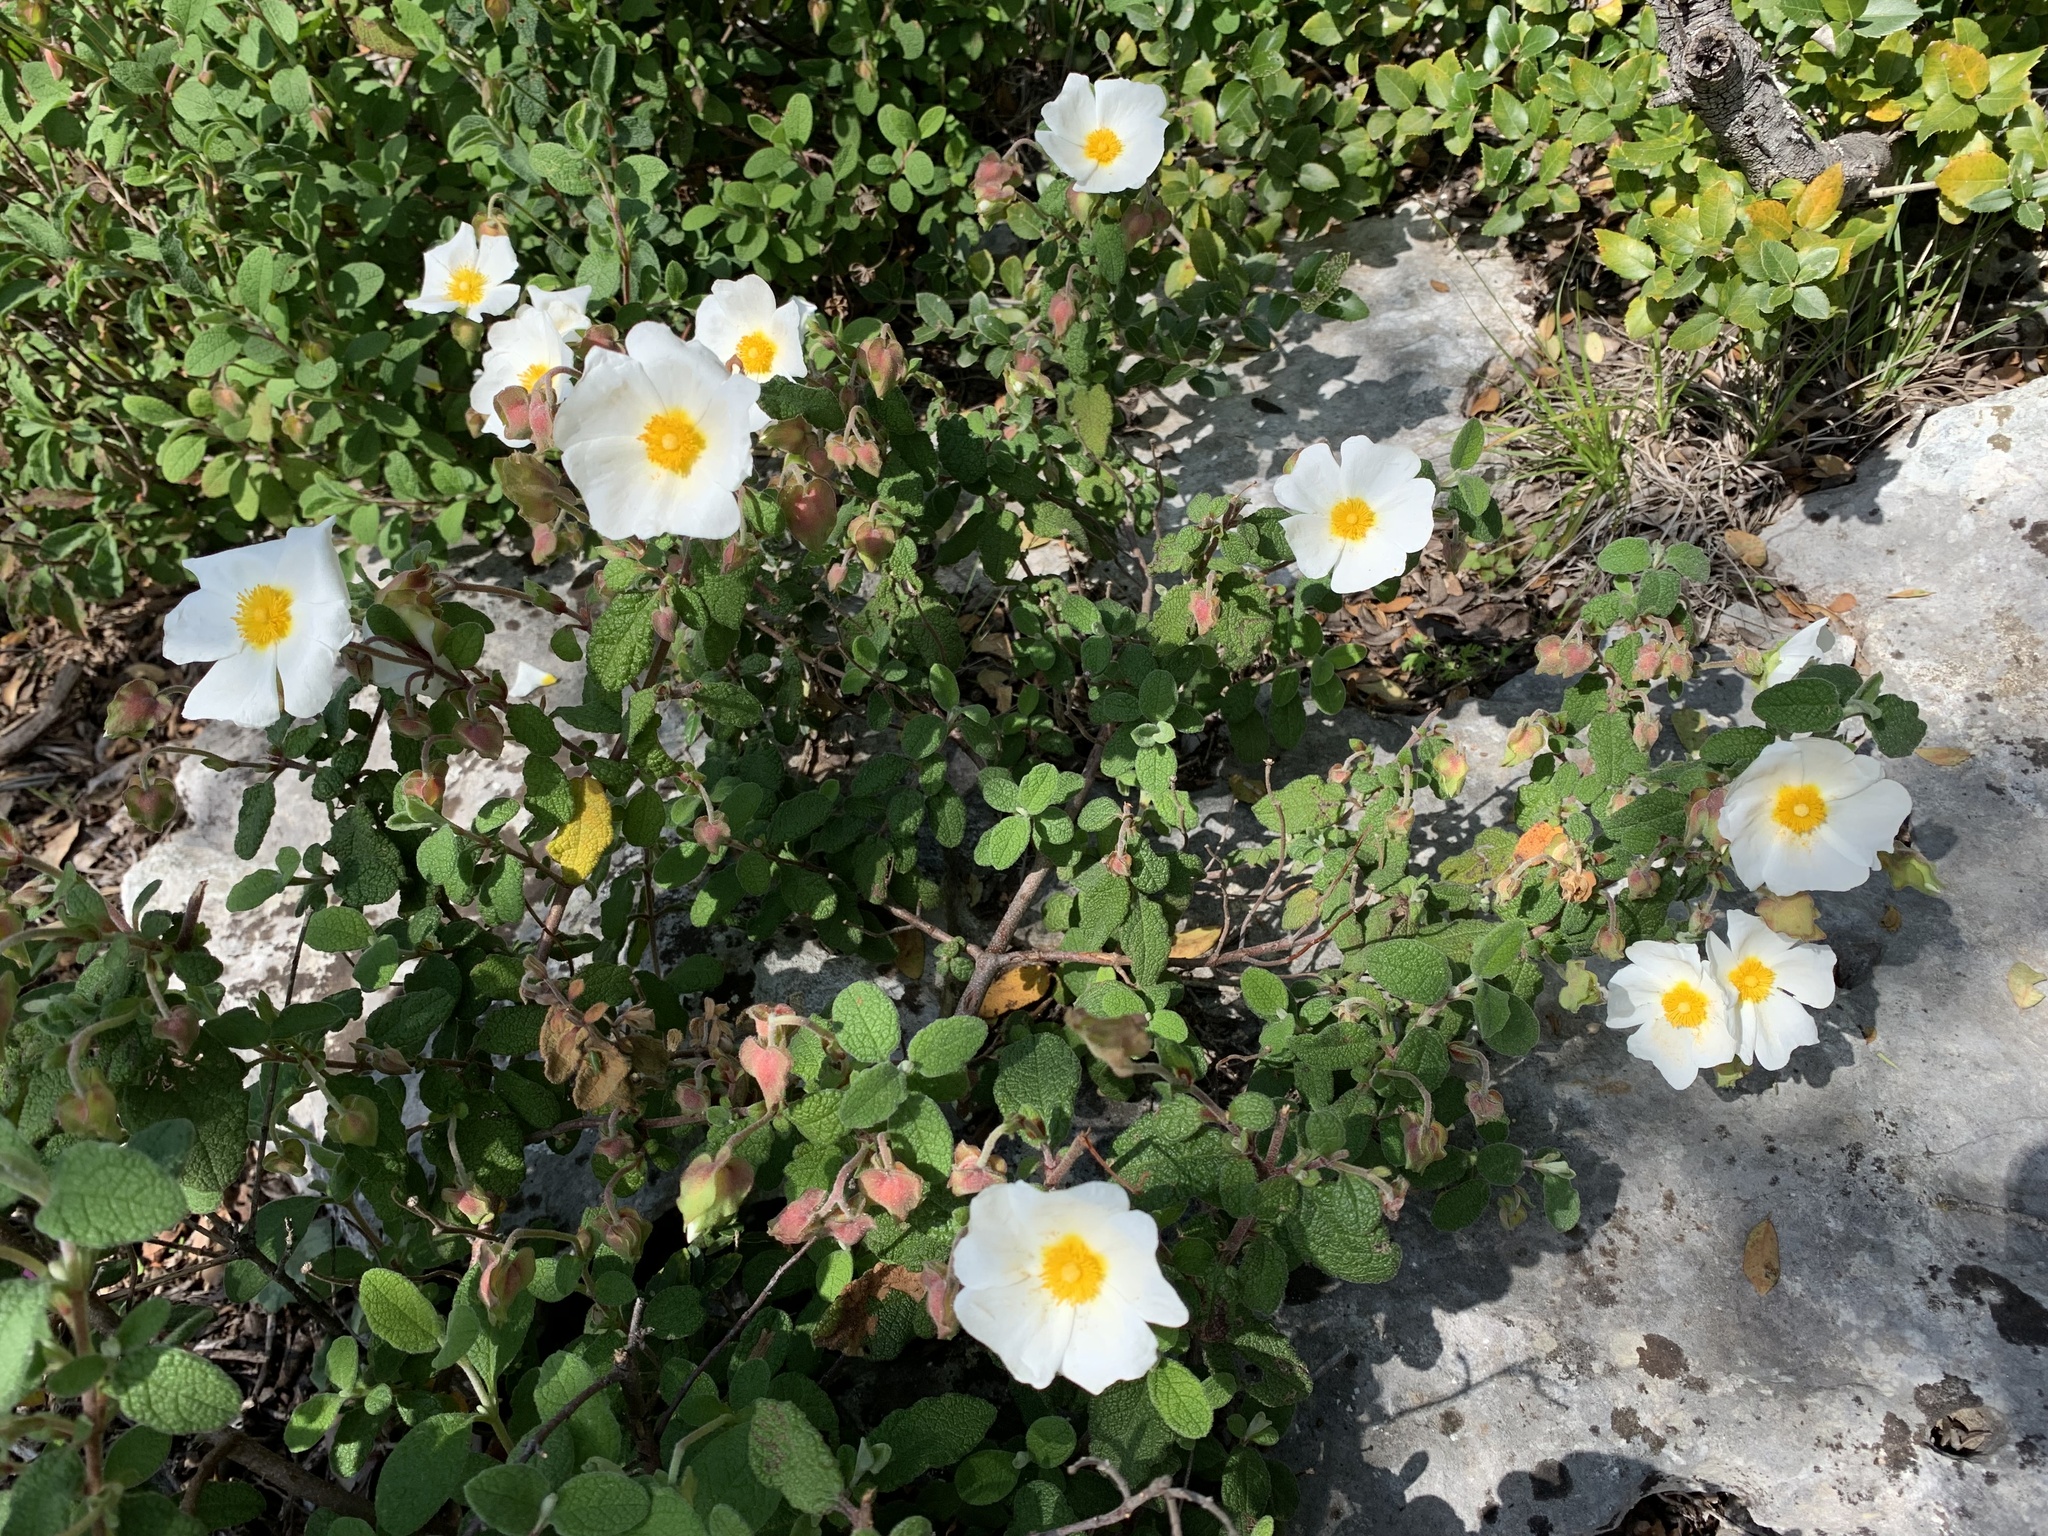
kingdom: Plantae
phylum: Tracheophyta
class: Magnoliopsida
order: Malvales
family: Cistaceae
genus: Cistus
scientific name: Cistus salviifolius
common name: Salvia cistus
